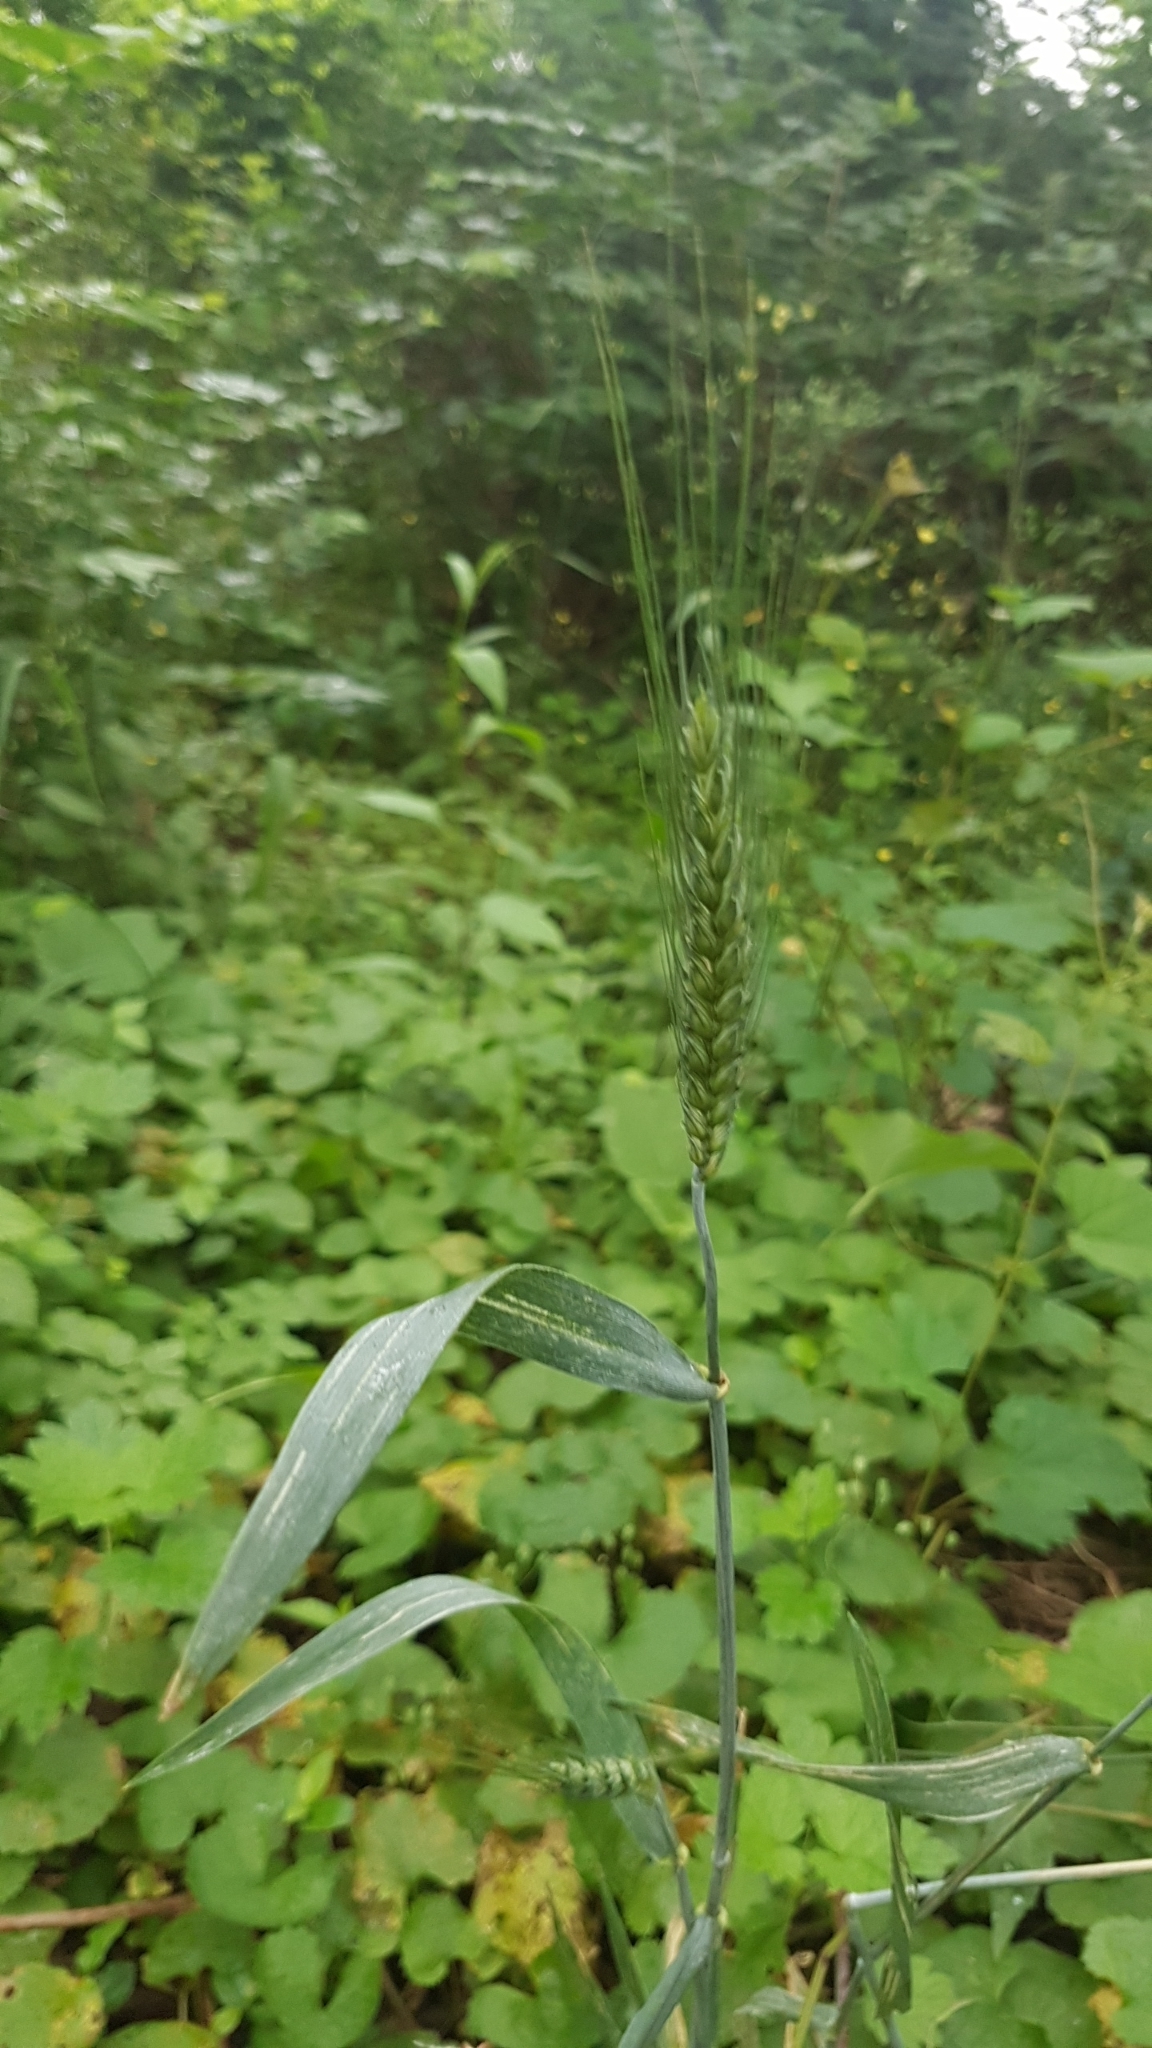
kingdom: Plantae
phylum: Tracheophyta
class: Liliopsida
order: Poales
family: Poaceae
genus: Triticum
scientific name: Triticum aestivum
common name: Common wheat
